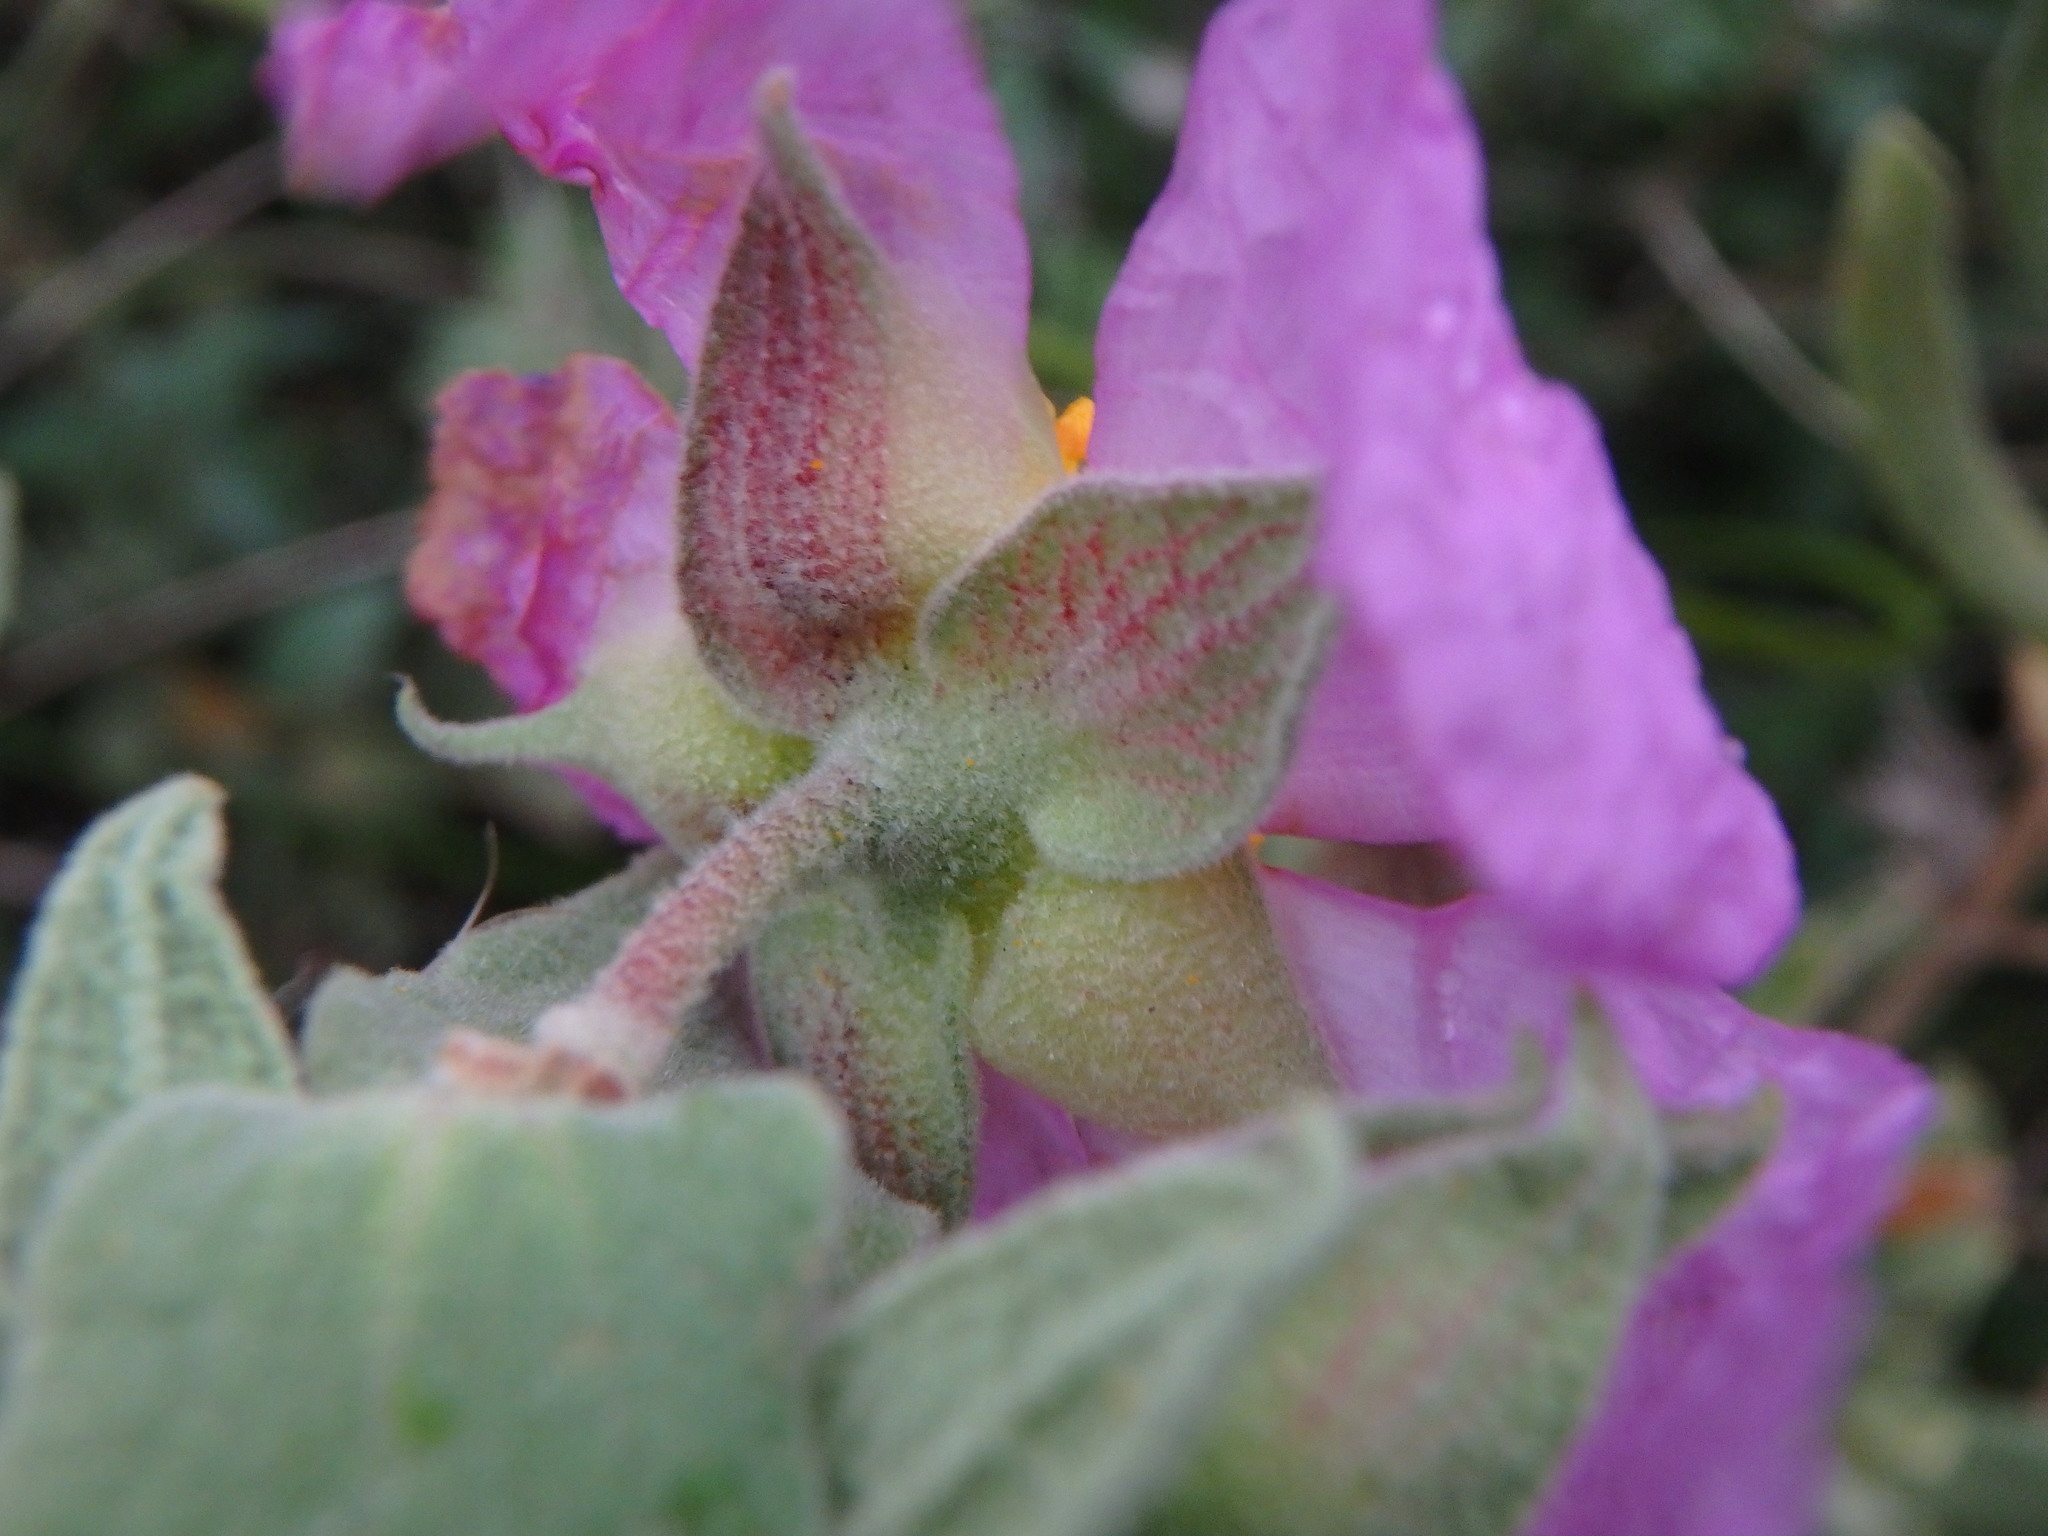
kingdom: Plantae
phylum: Tracheophyta
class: Magnoliopsida
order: Malvales
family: Cistaceae
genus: Cistus
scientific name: Cistus albidus
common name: White-leaf rock-rose
